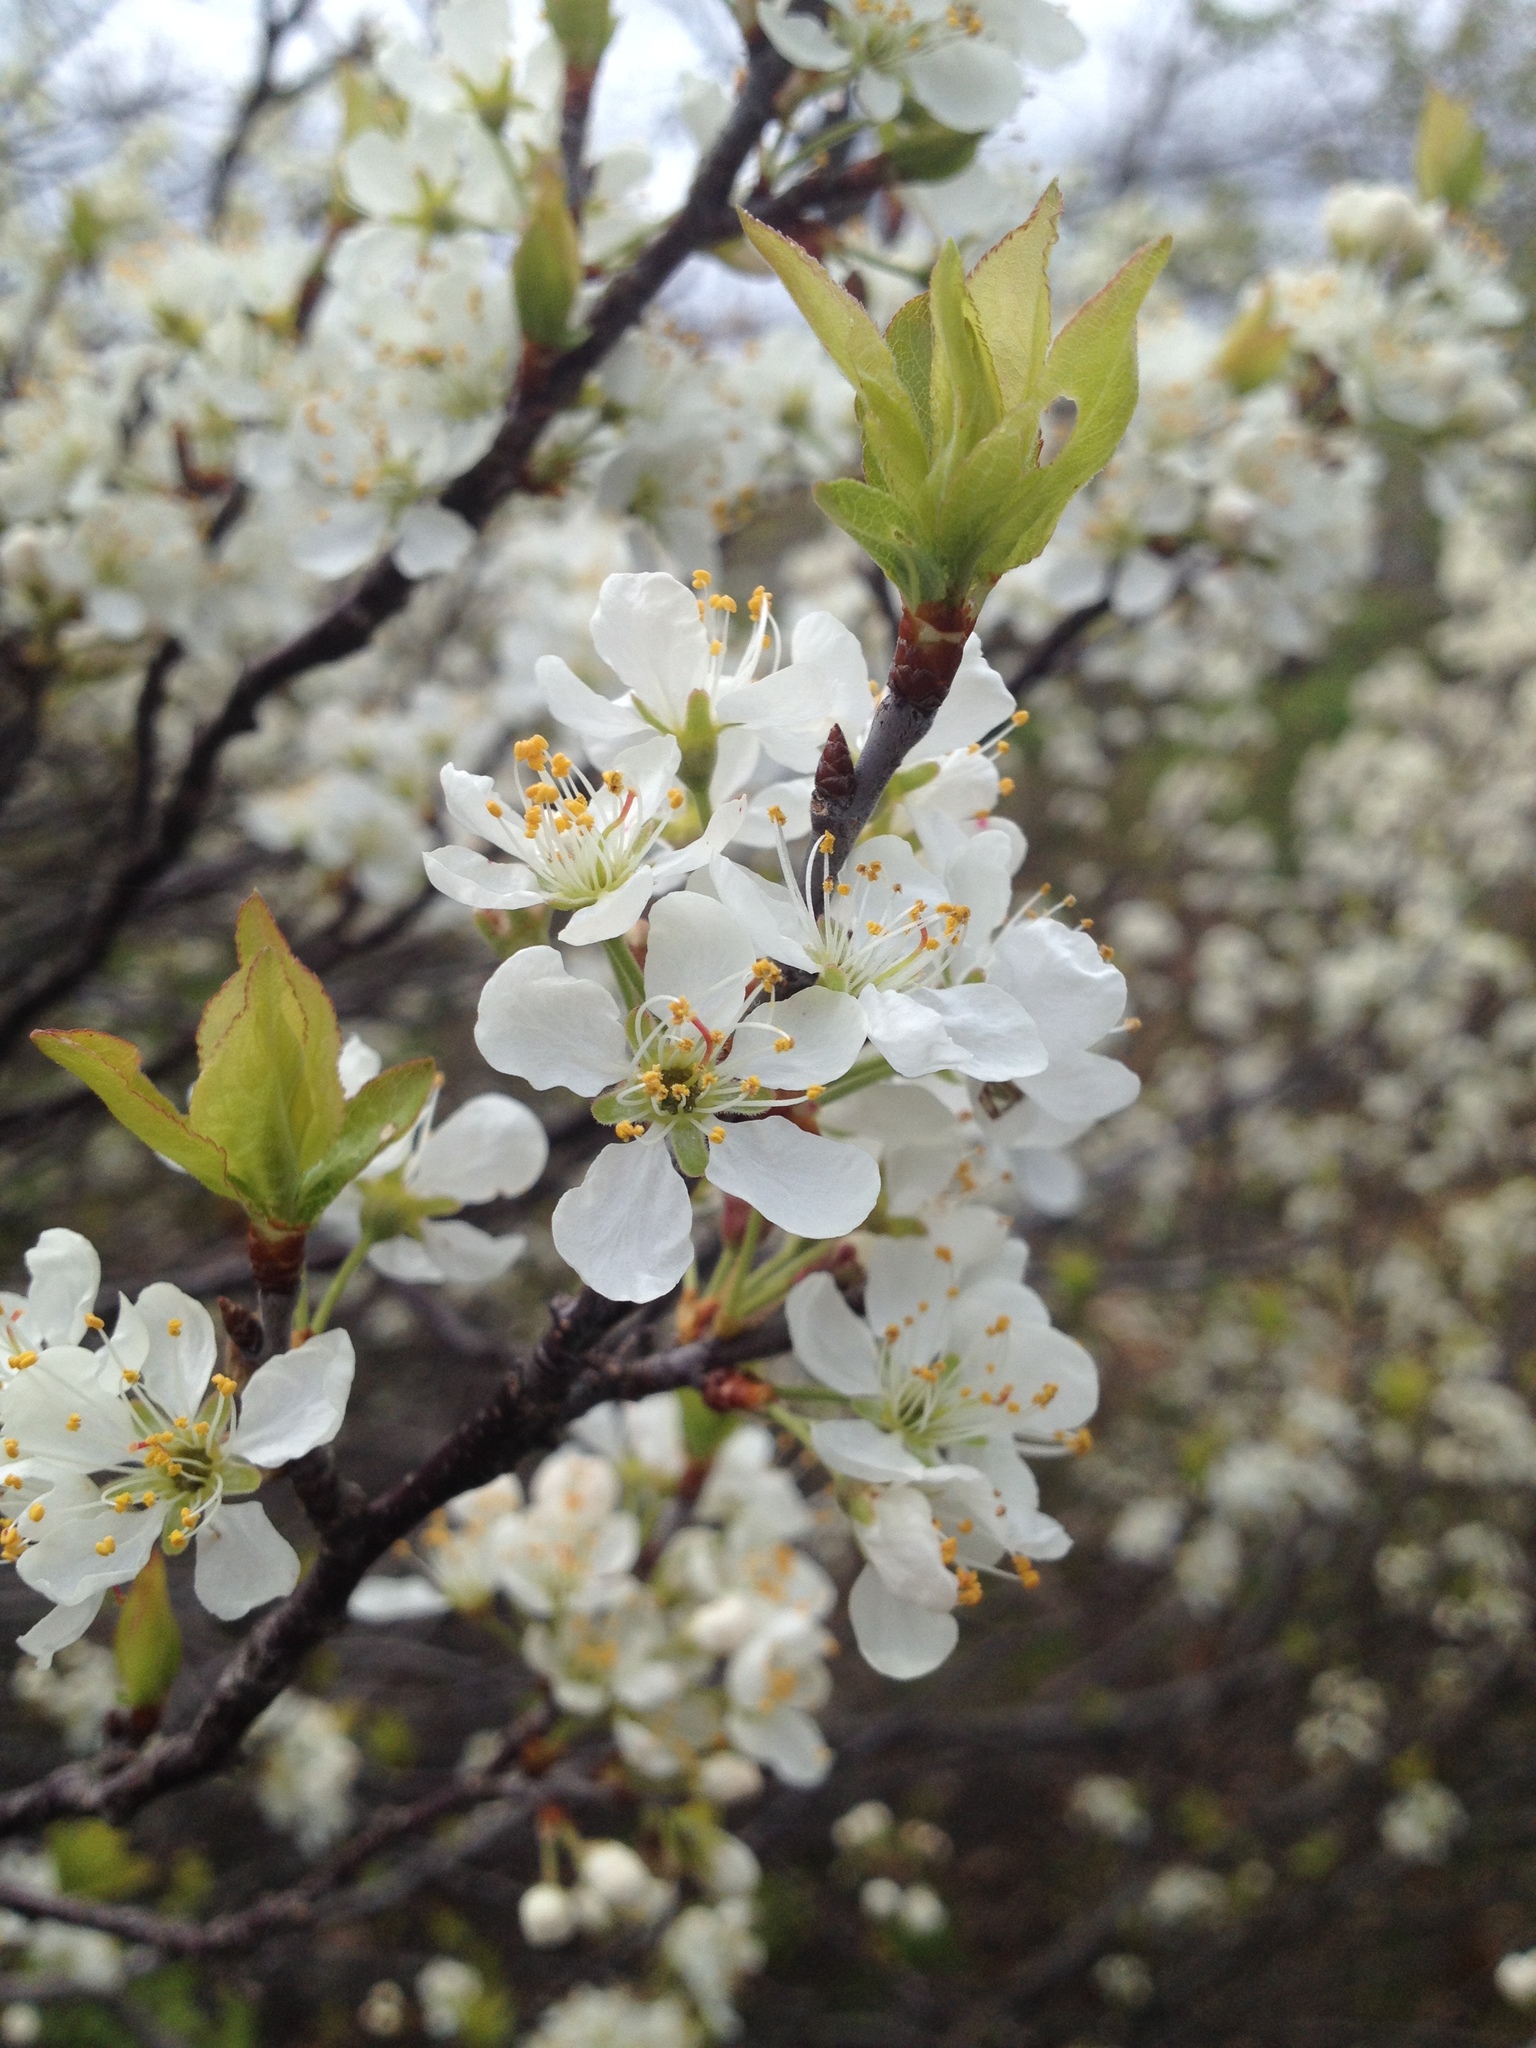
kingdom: Plantae
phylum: Tracheophyta
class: Magnoliopsida
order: Rosales
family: Rosaceae
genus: Prunus
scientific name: Prunus maritima
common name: Beach plum
